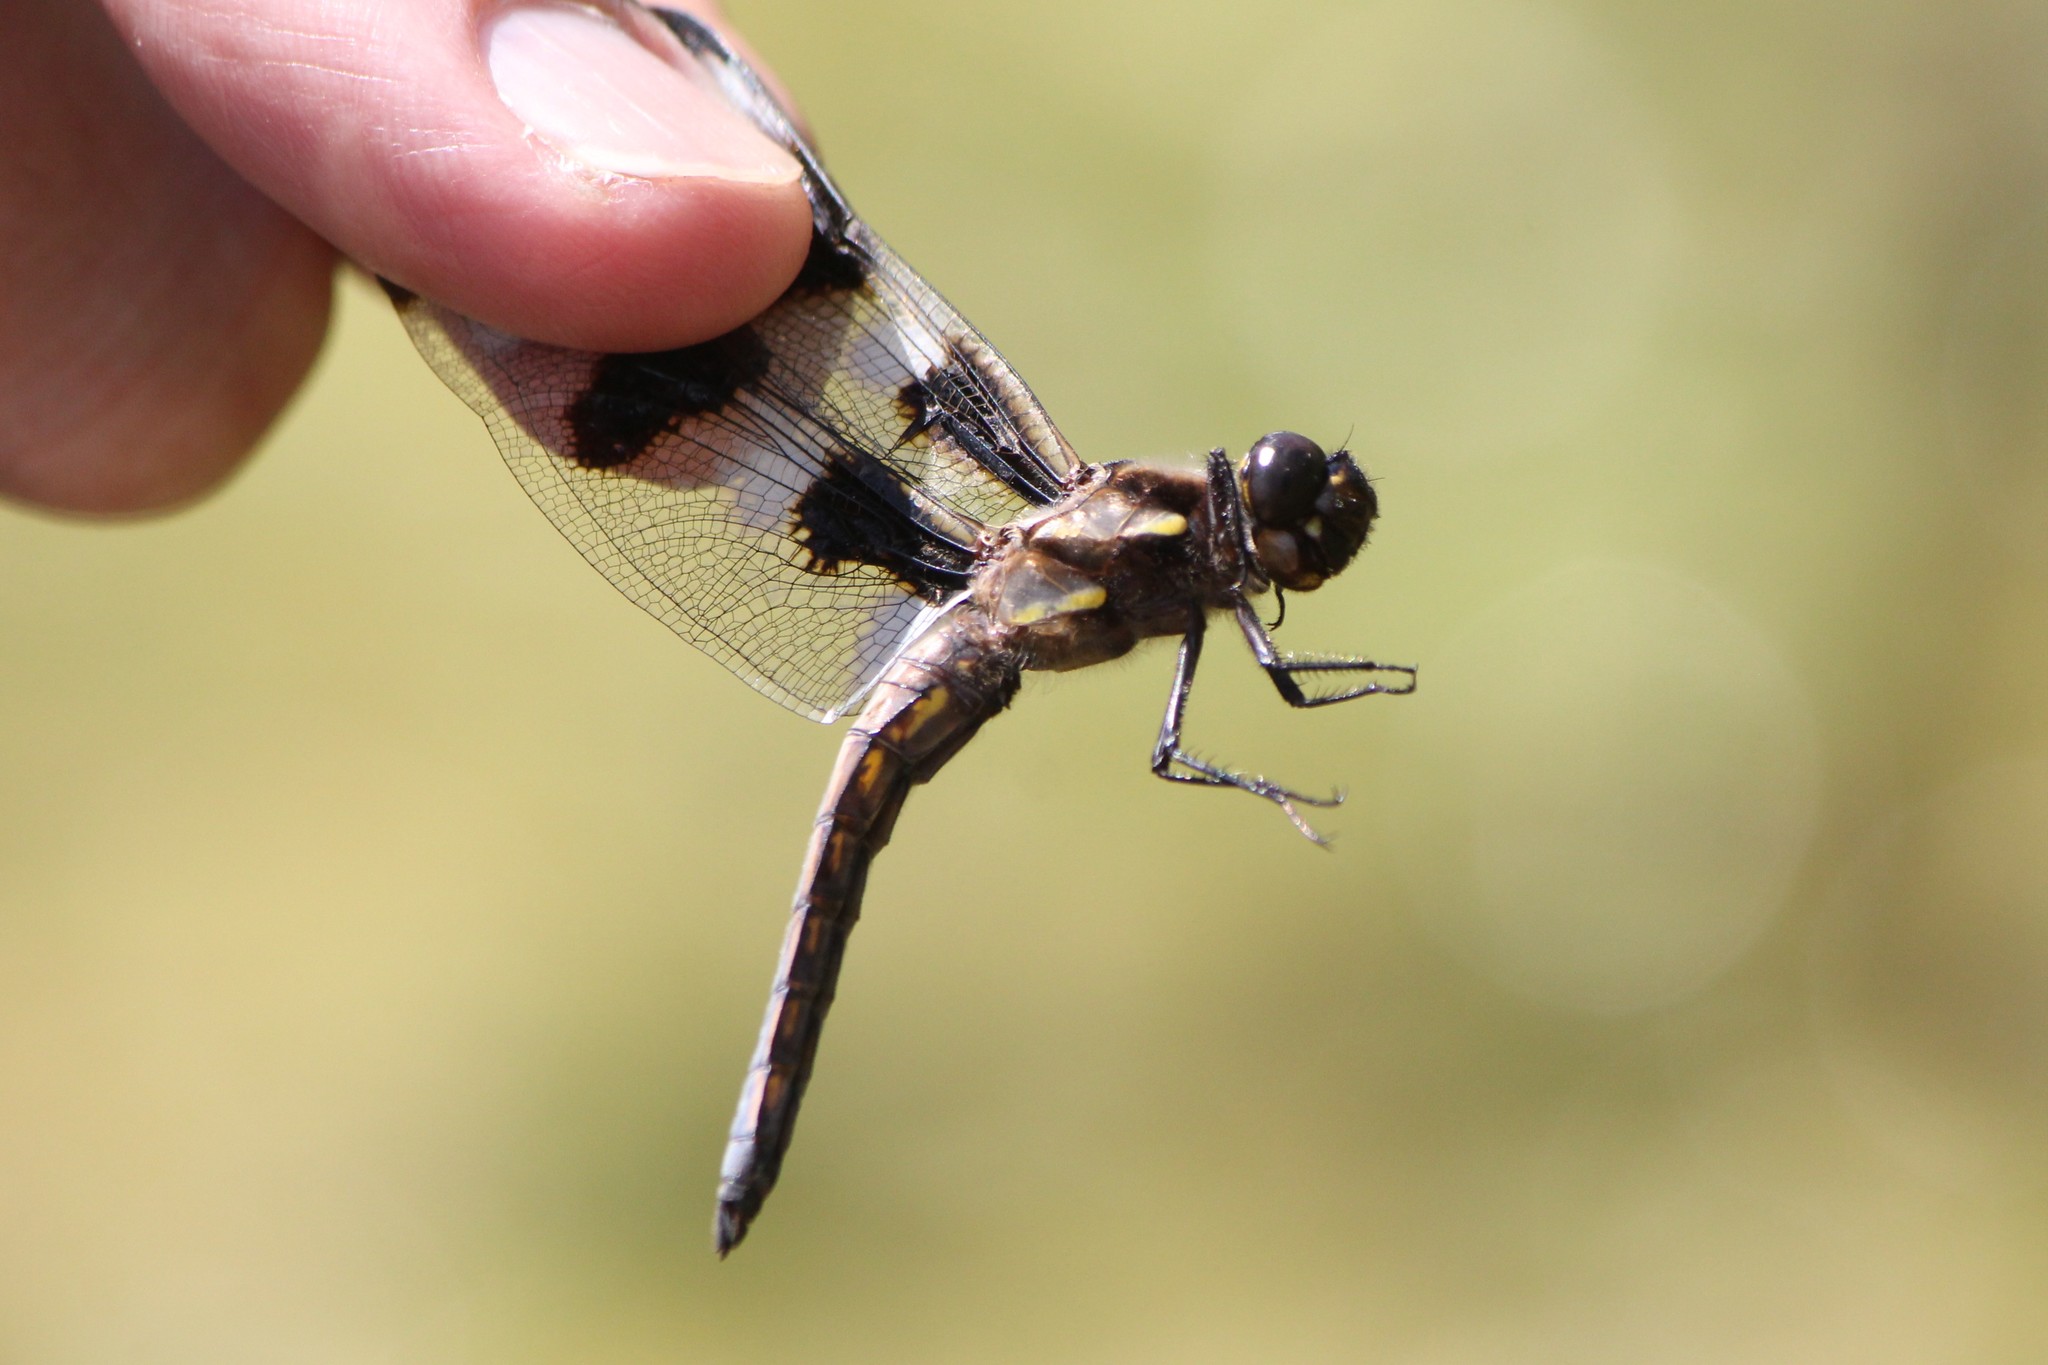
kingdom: Animalia
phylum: Arthropoda
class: Insecta
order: Odonata
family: Libellulidae
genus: Libellula
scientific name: Libellula pulchella
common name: Twelve-spotted skimmer
